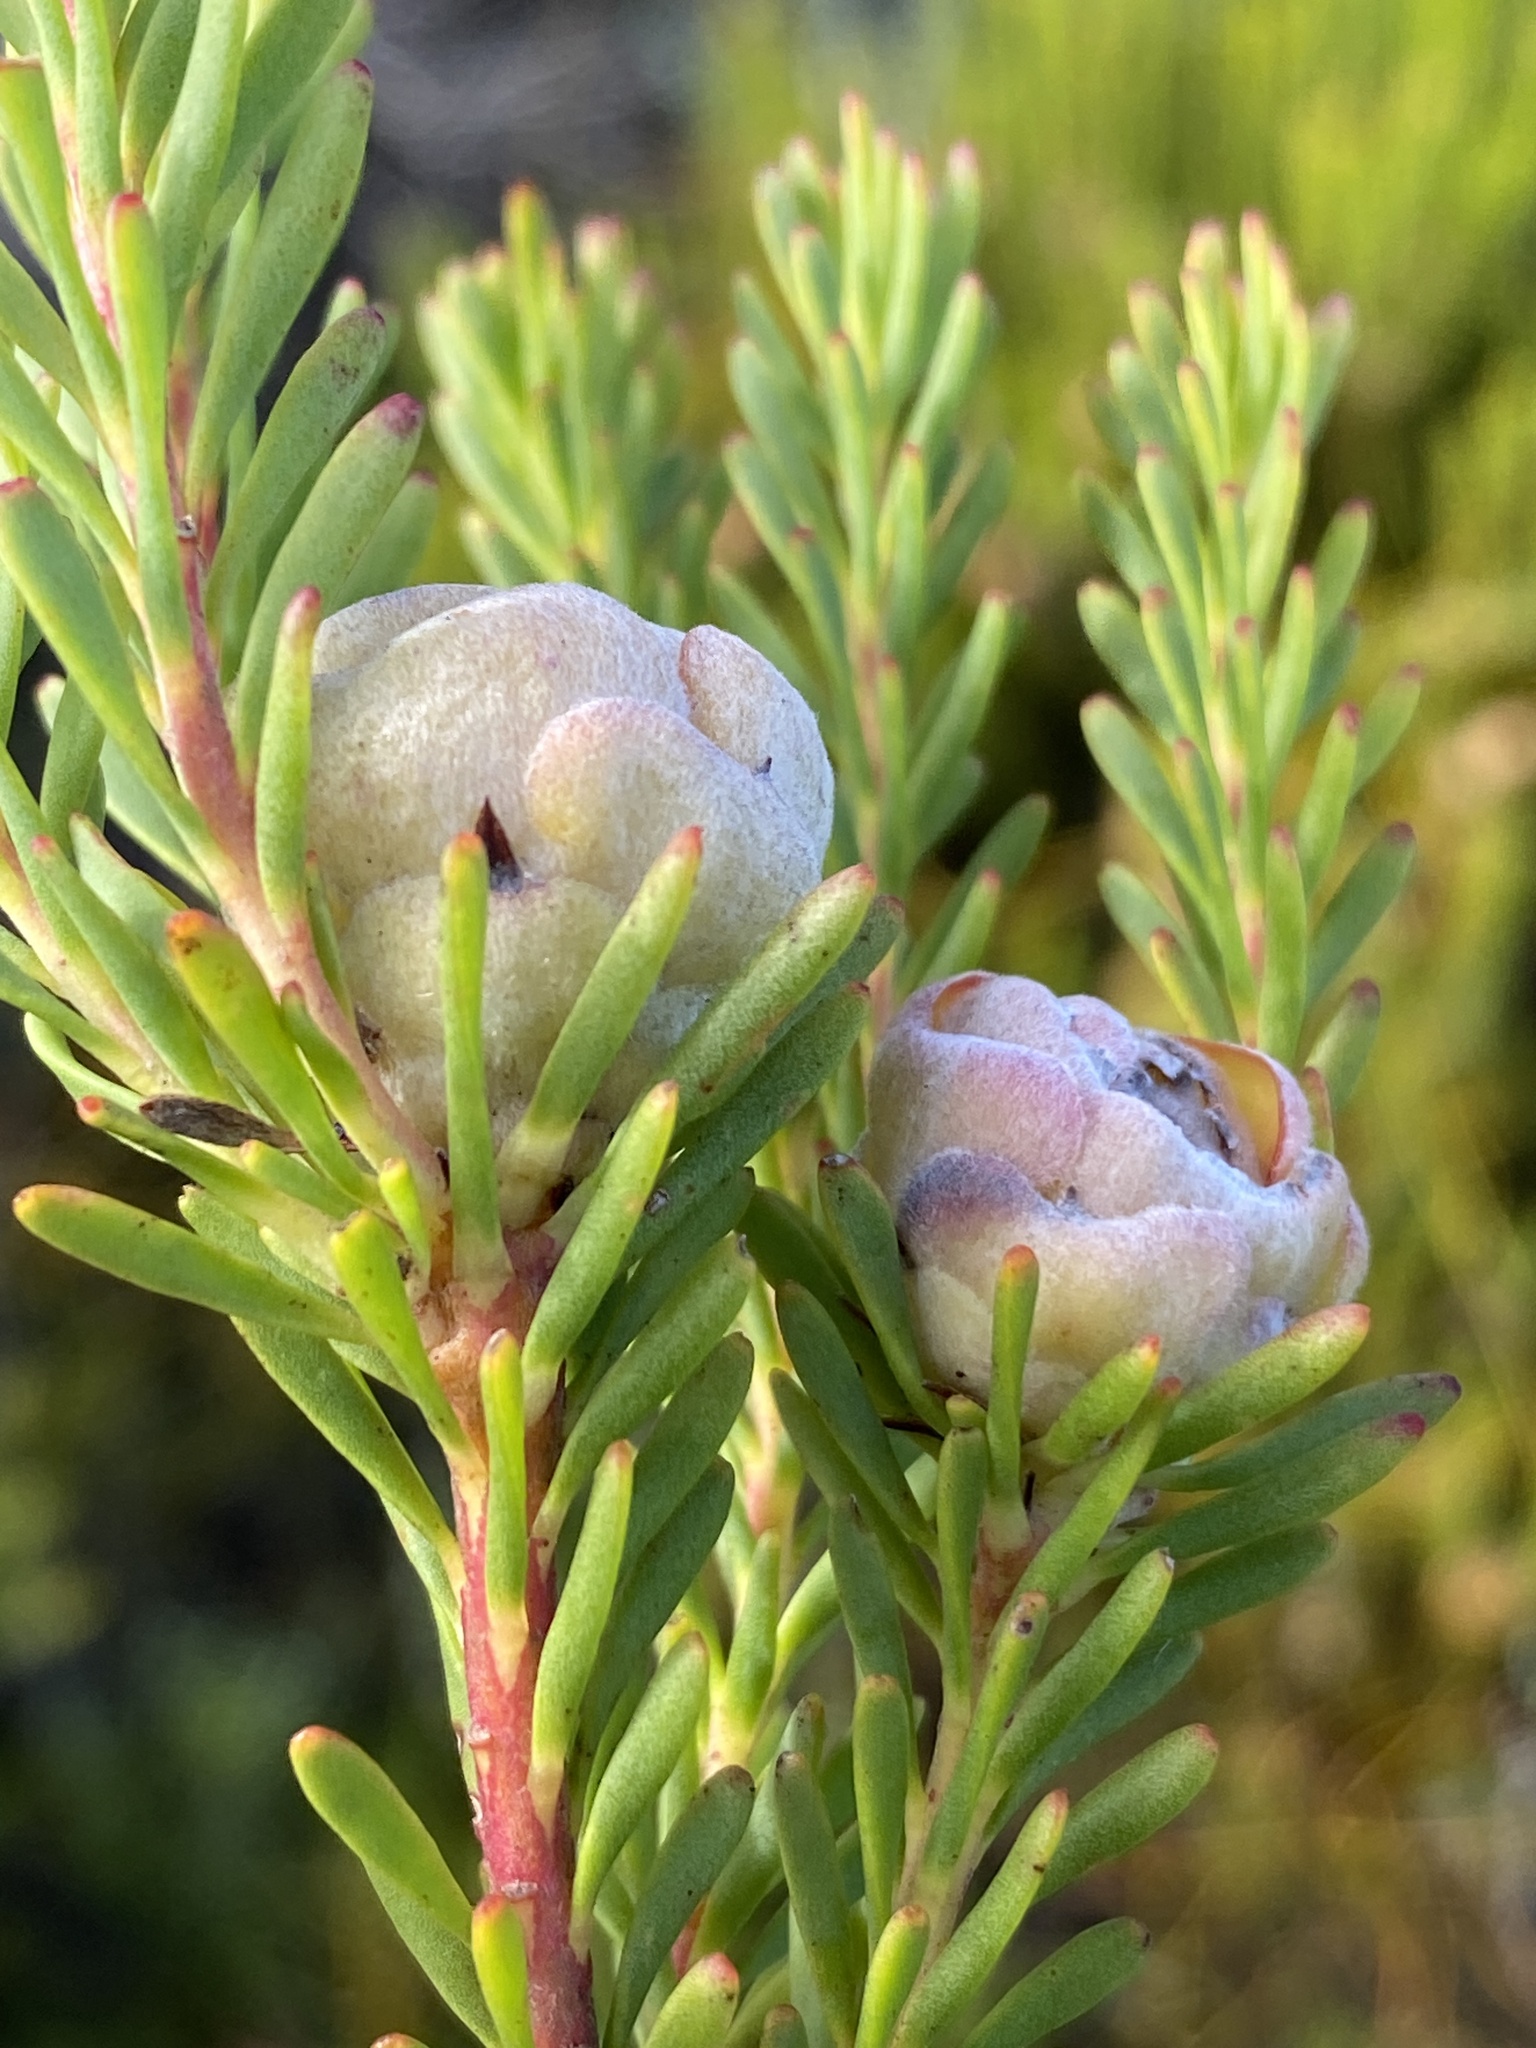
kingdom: Plantae
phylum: Tracheophyta
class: Magnoliopsida
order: Proteales
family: Proteaceae
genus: Leucadendron
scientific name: Leucadendron linifolium
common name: Line-leaf conebush
